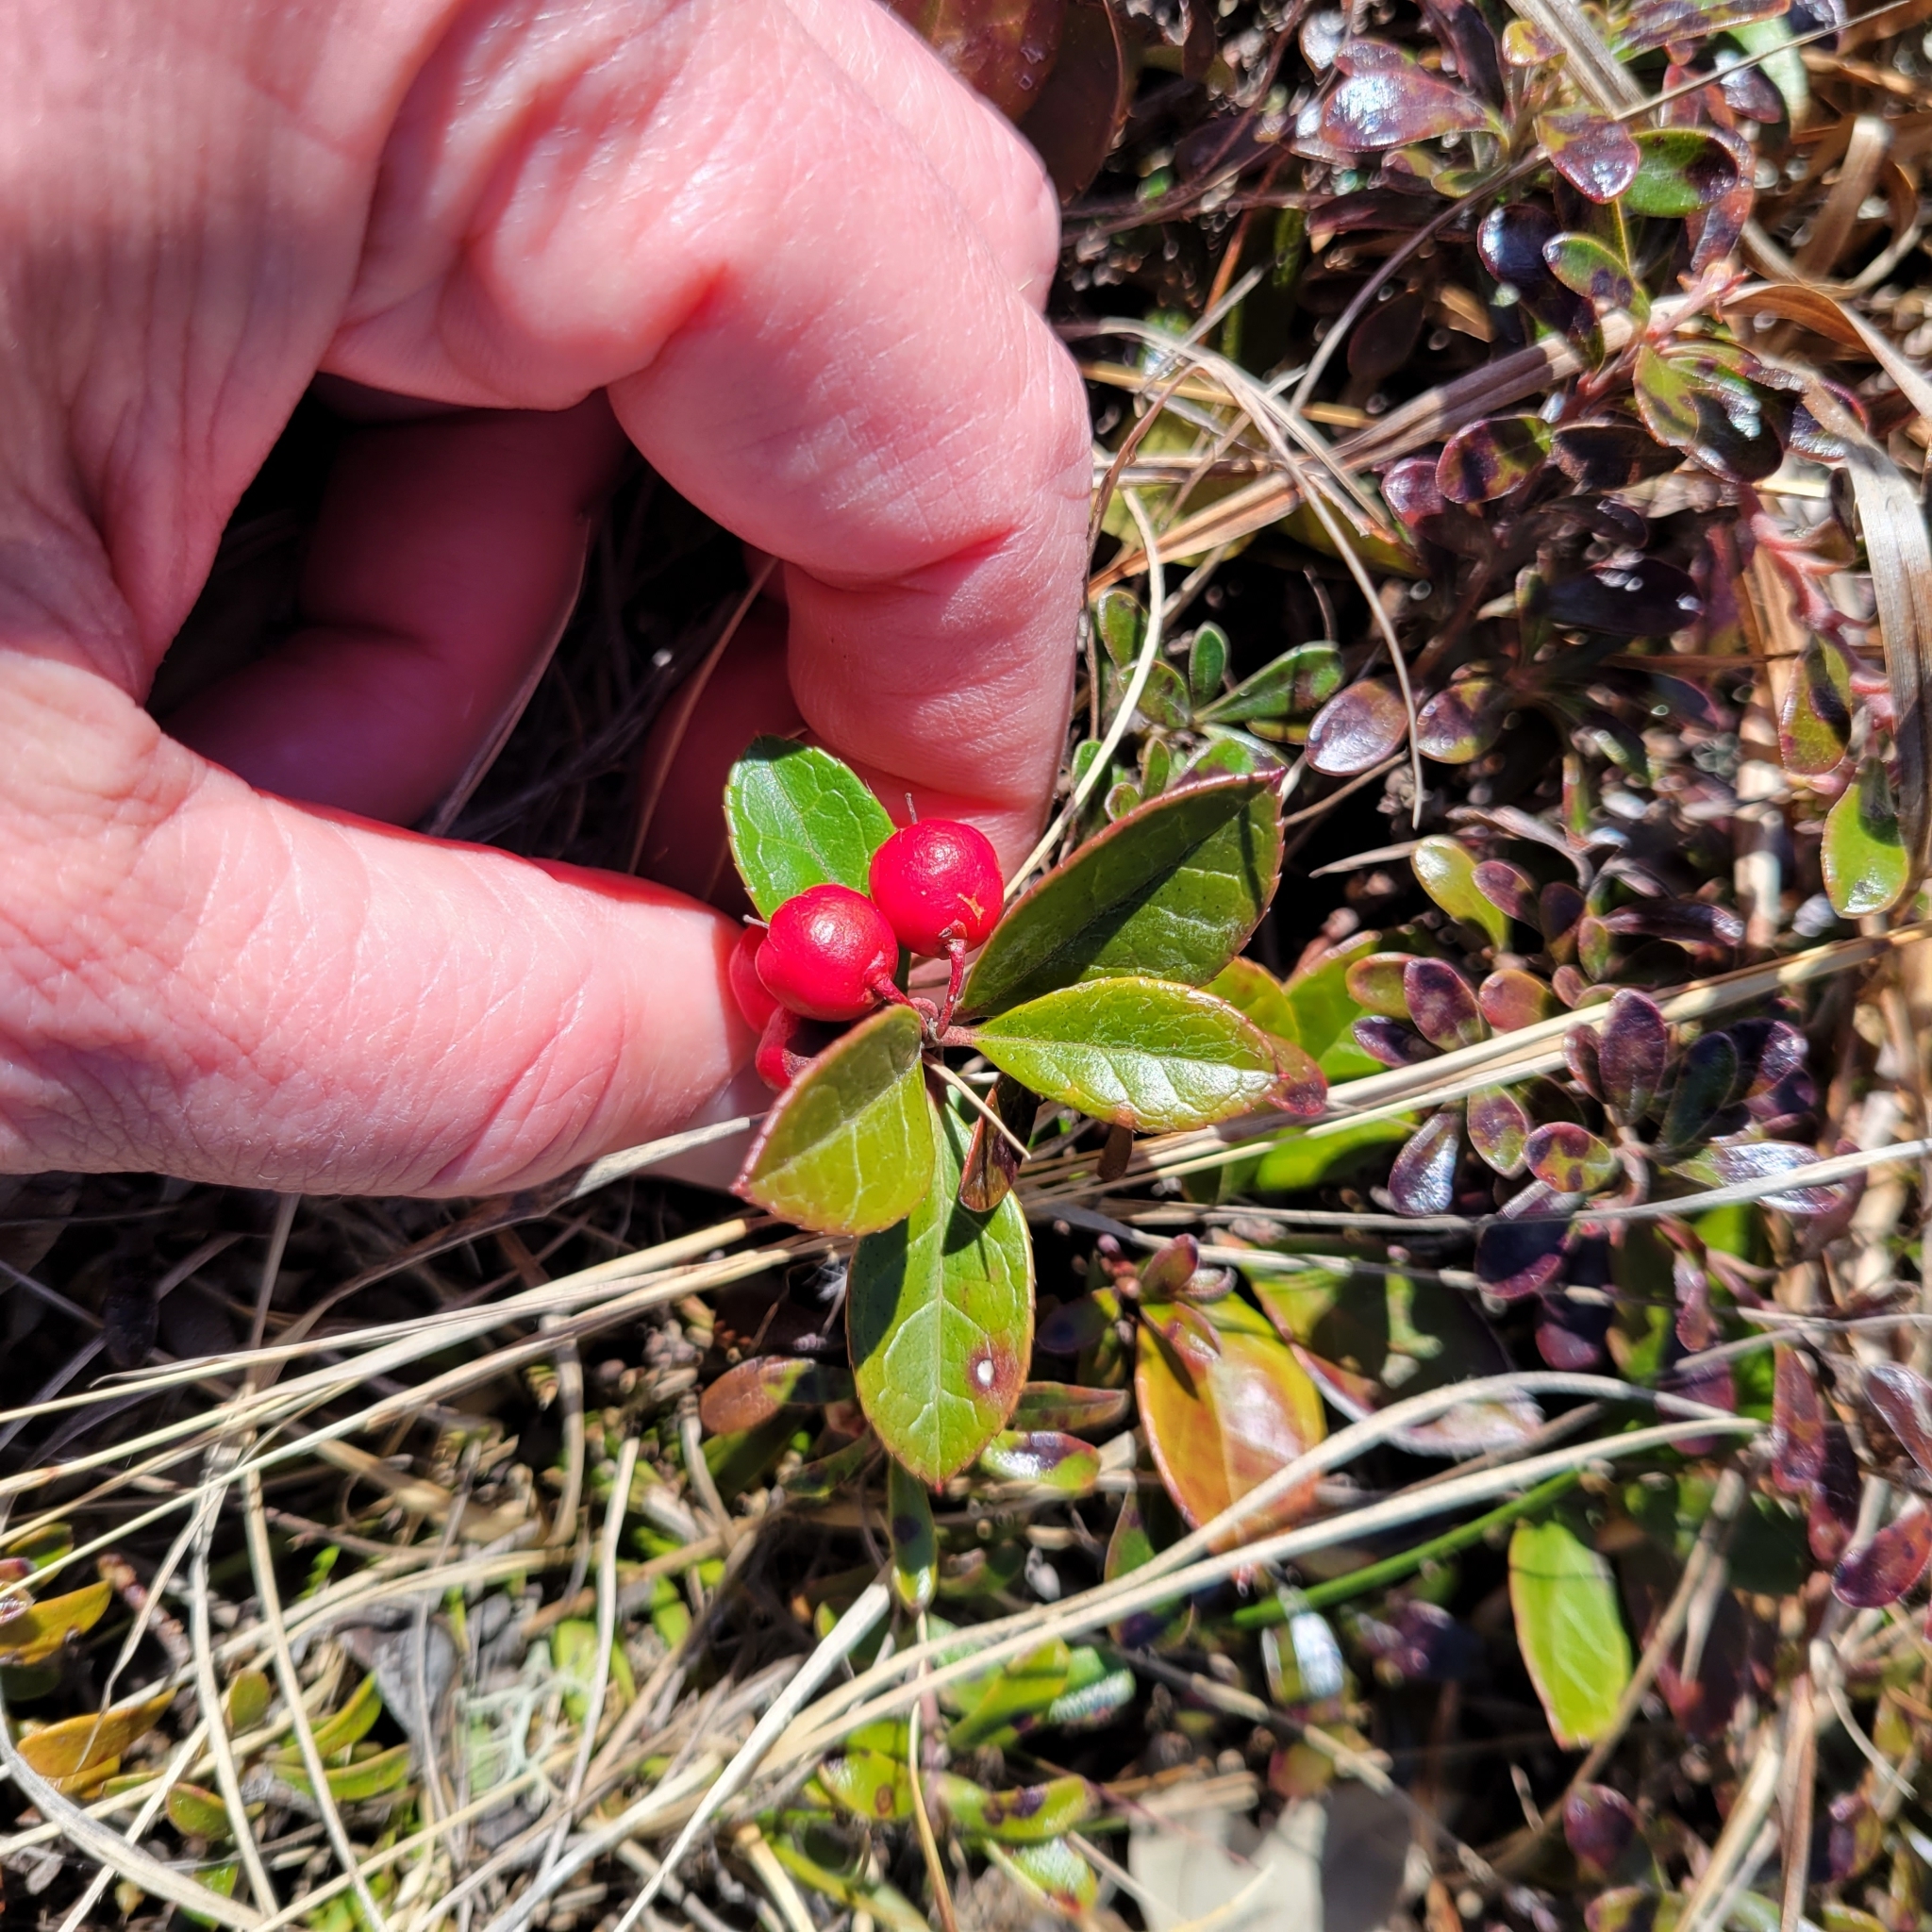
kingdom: Plantae
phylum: Tracheophyta
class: Magnoliopsida
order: Ericales
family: Ericaceae
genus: Gaultheria
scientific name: Gaultheria procumbens
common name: Checkerberry
